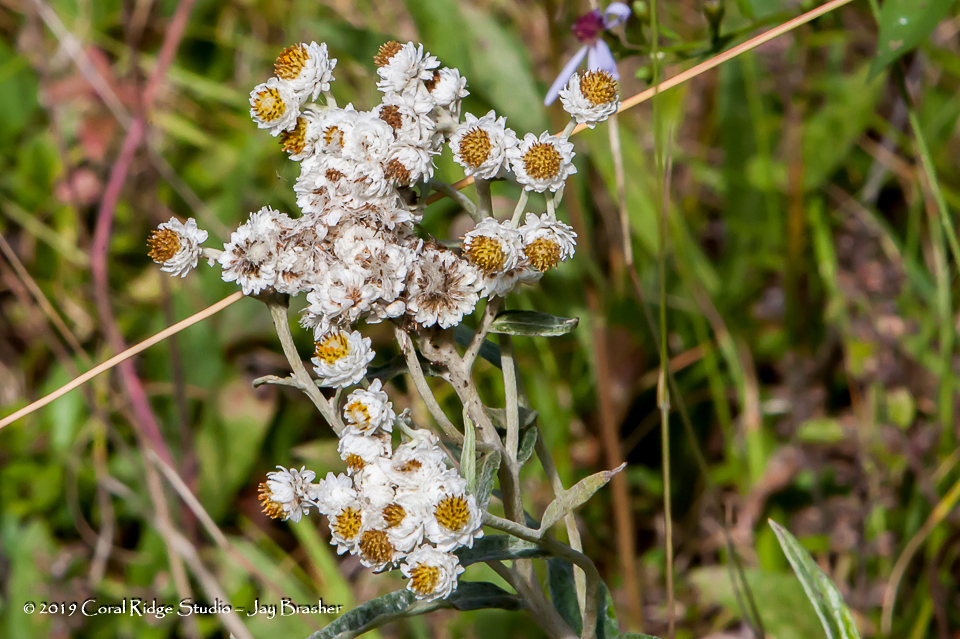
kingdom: Plantae
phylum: Tracheophyta
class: Magnoliopsida
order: Asterales
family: Asteraceae
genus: Anaphalis
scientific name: Anaphalis margaritacea
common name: Pearly everlasting
